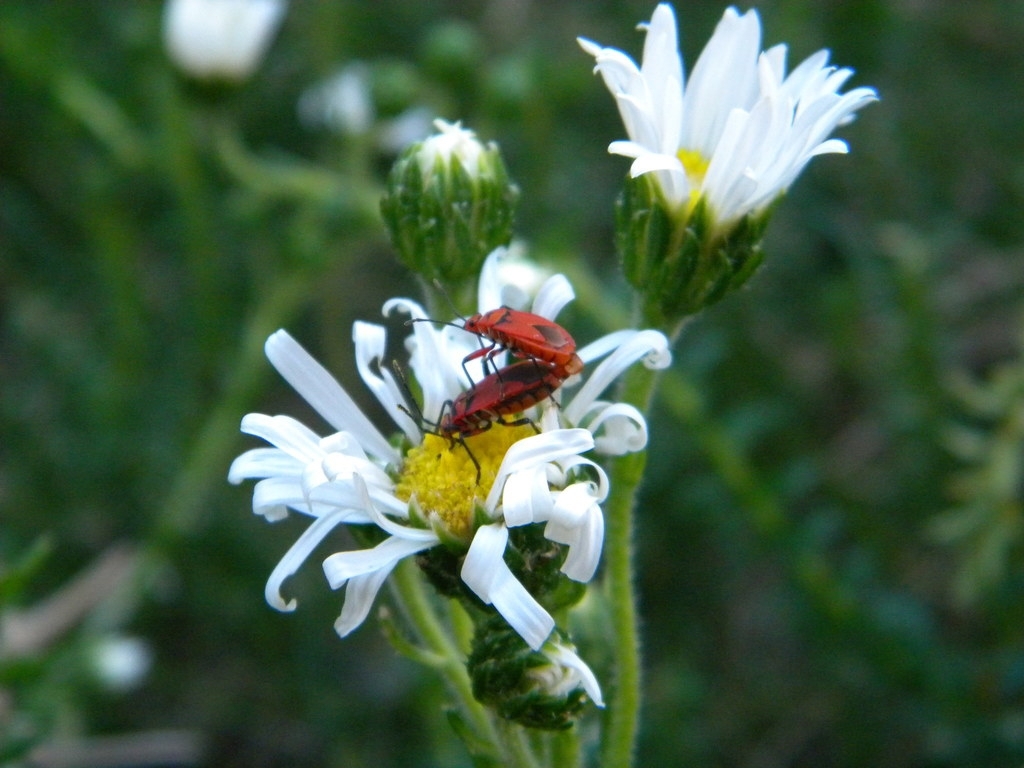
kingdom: Animalia
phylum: Arthropoda
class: Insecta
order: Hemiptera
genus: Cenaeus
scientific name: Cenaeus
